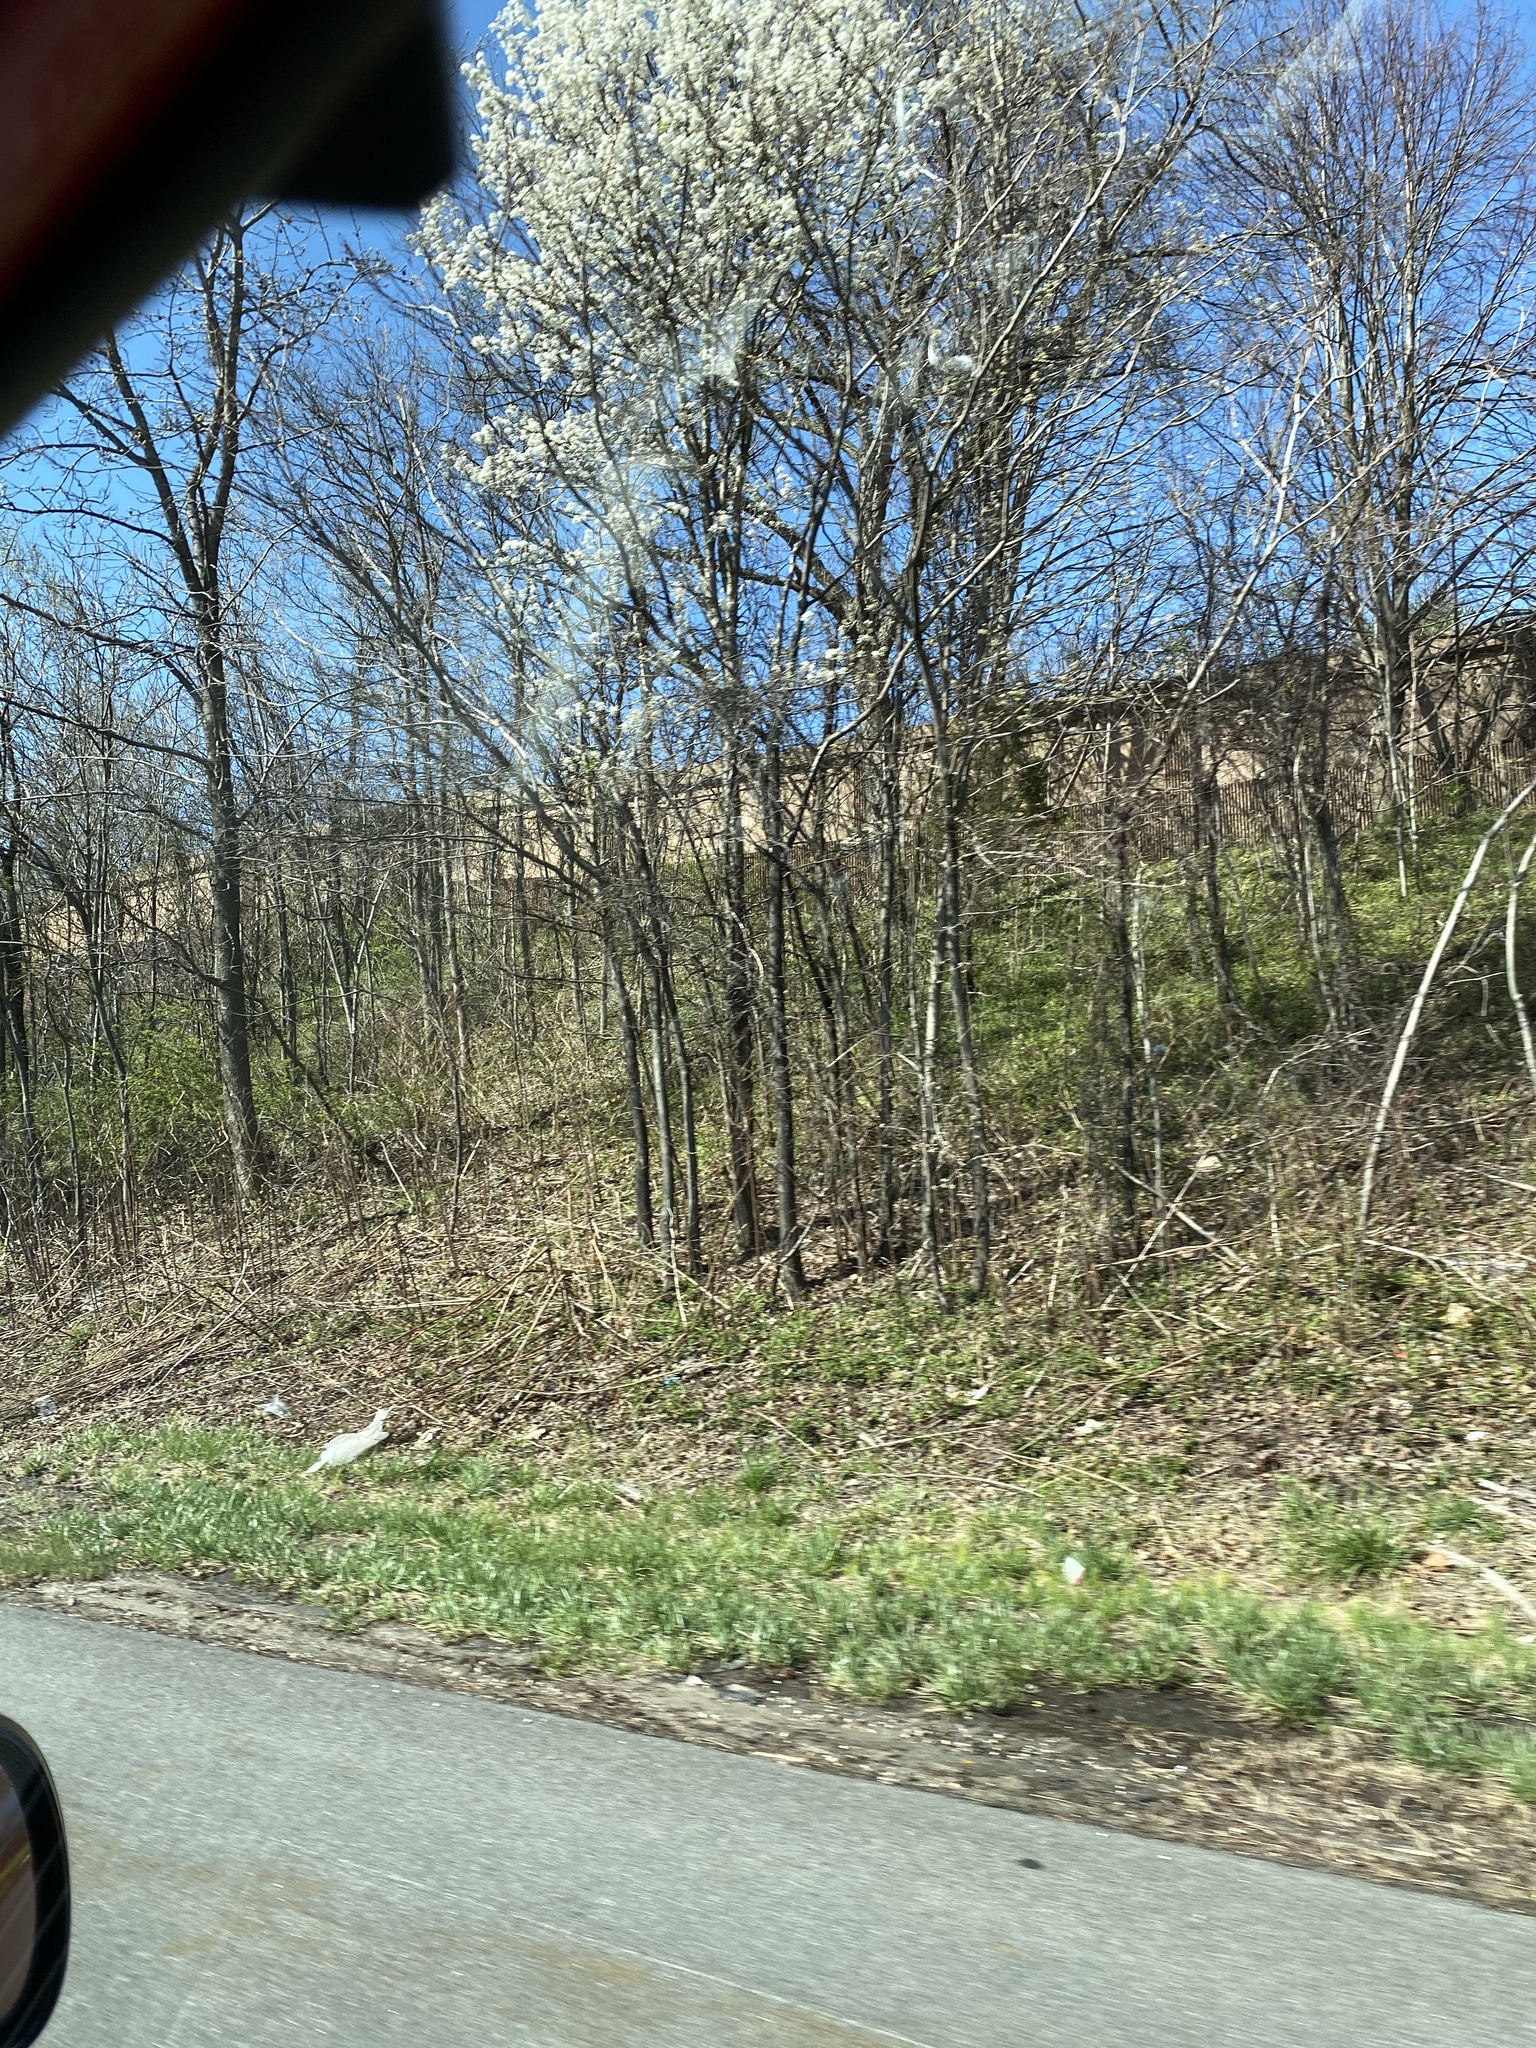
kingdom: Plantae
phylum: Tracheophyta
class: Magnoliopsida
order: Rosales
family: Rosaceae
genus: Pyrus
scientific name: Pyrus calleryana
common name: Callery pear
